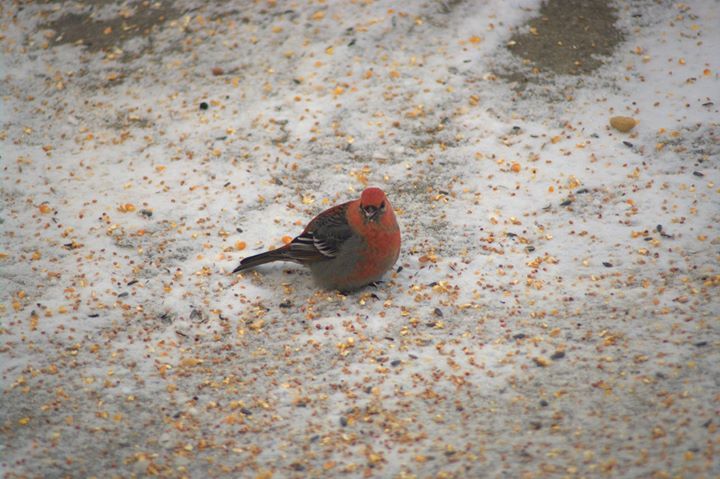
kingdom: Animalia
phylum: Chordata
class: Aves
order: Passeriformes
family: Fringillidae
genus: Pinicola
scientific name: Pinicola enucleator
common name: Pine grosbeak
